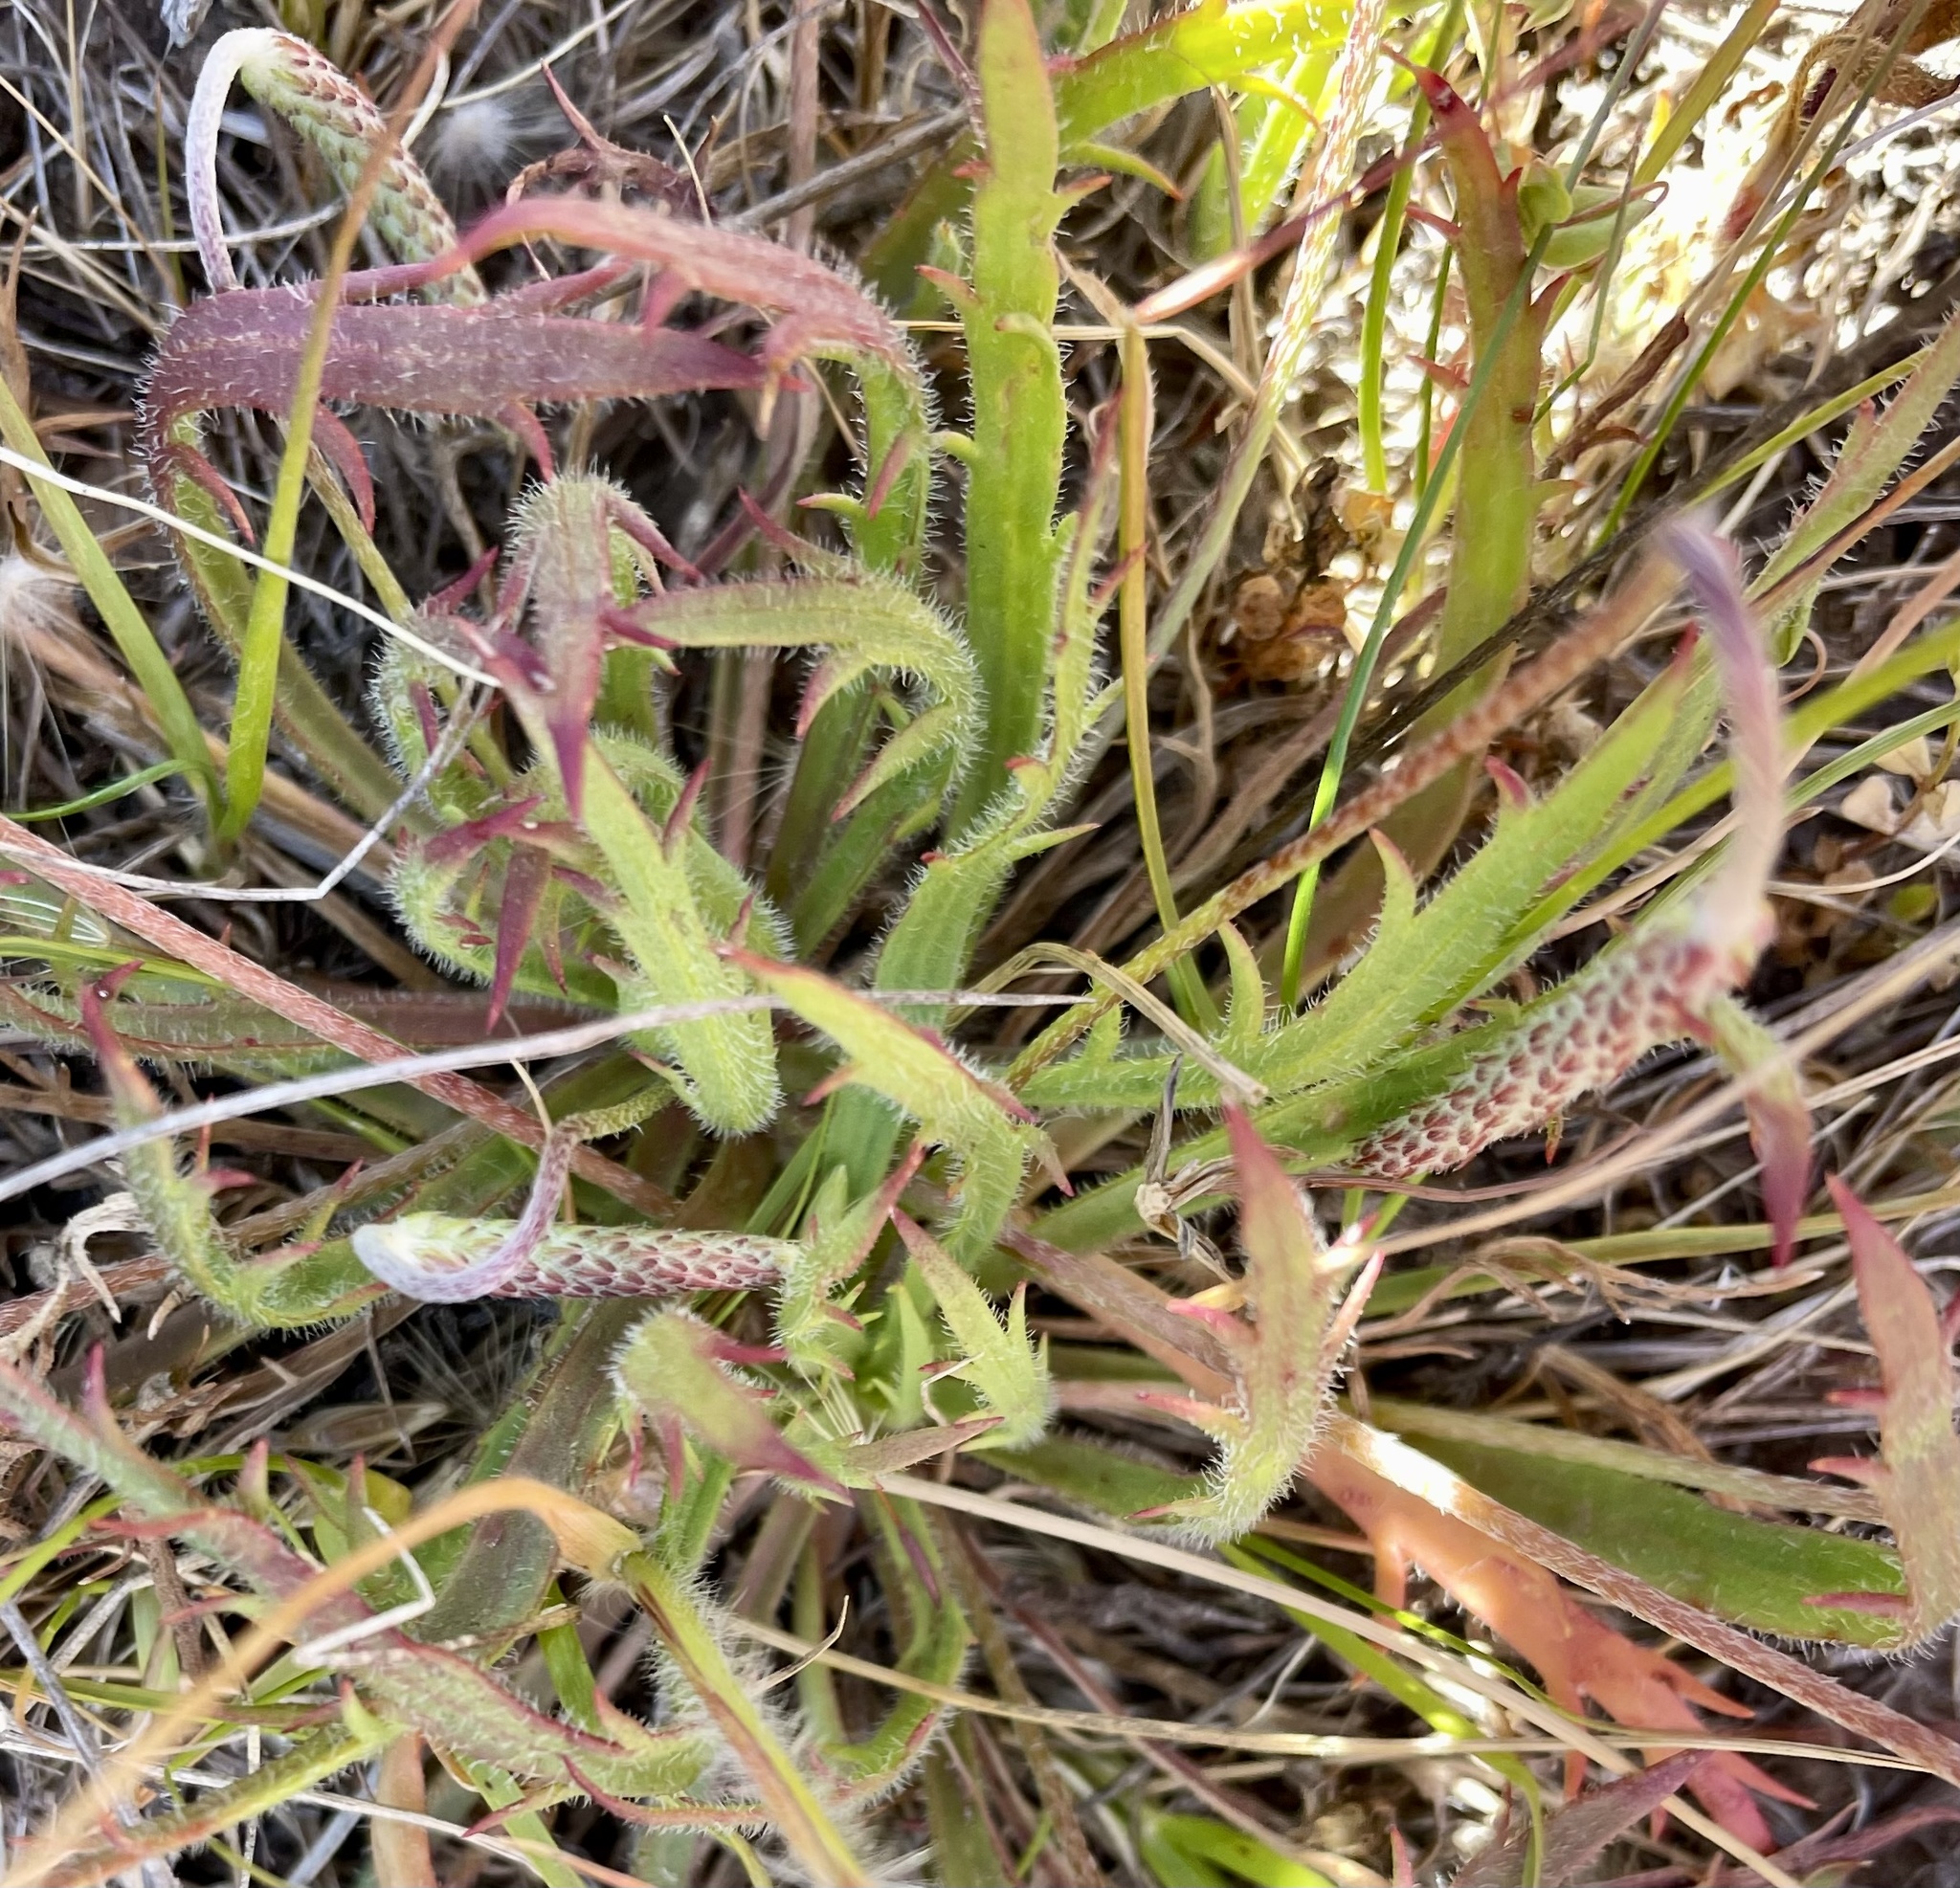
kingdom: Plantae
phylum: Tracheophyta
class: Magnoliopsida
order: Lamiales
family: Plantaginaceae
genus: Plantago
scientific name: Plantago coronopus
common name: Buck's-horn plantain
